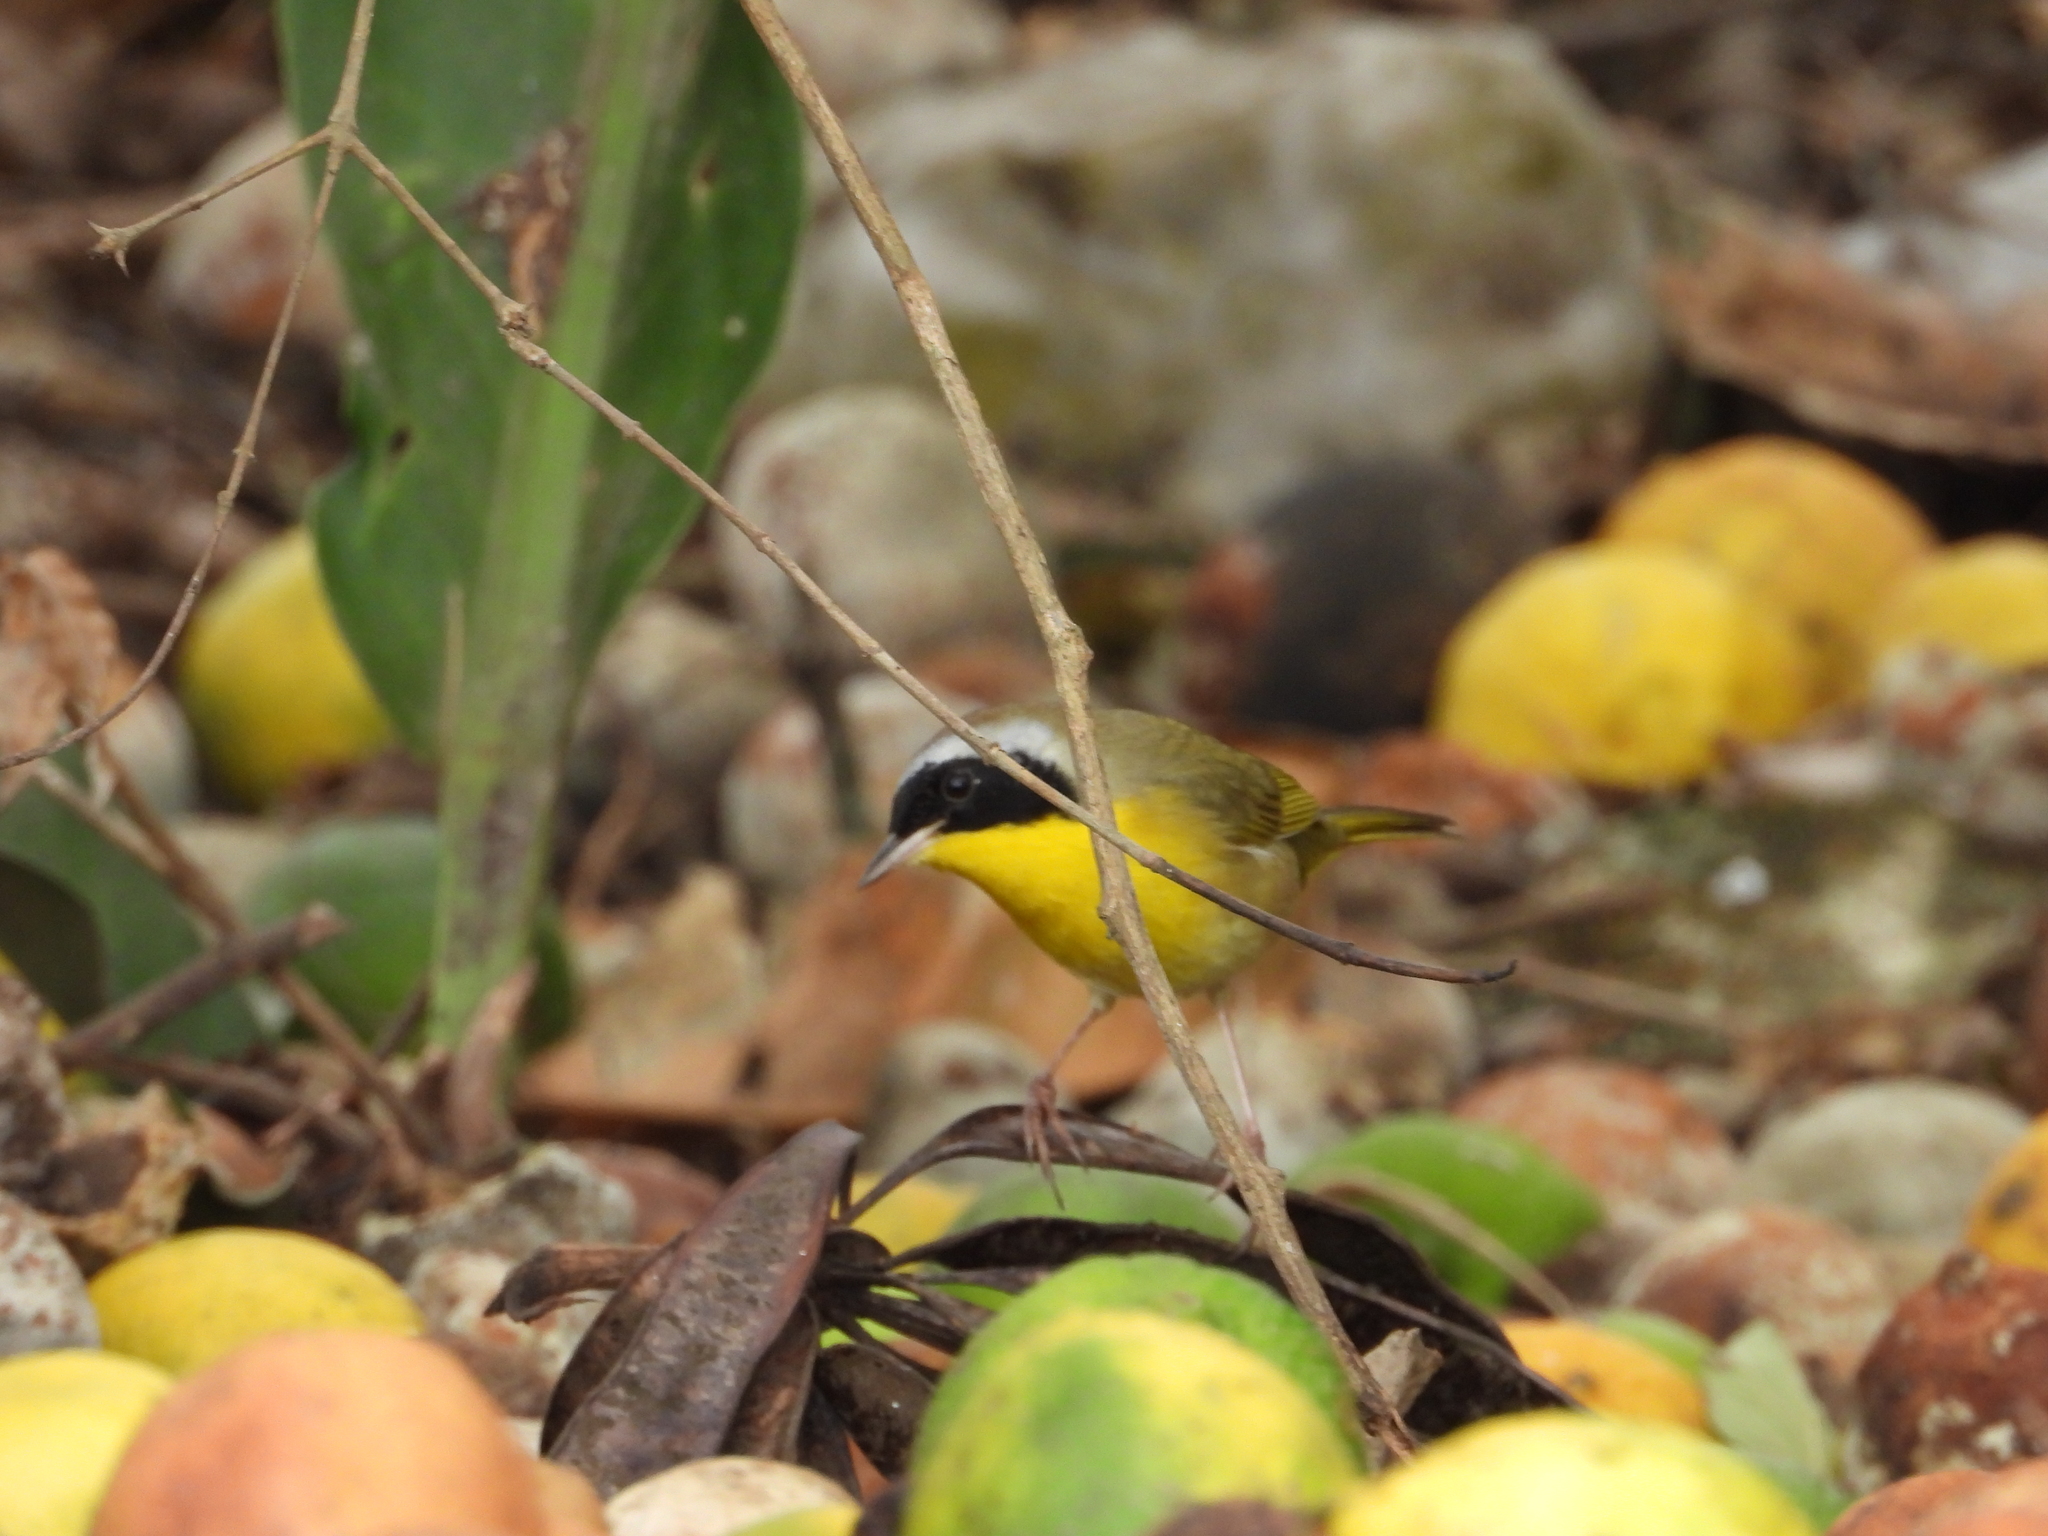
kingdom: Animalia
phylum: Chordata
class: Aves
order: Passeriformes
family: Parulidae
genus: Geothlypis
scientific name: Geothlypis trichas
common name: Common yellowthroat
